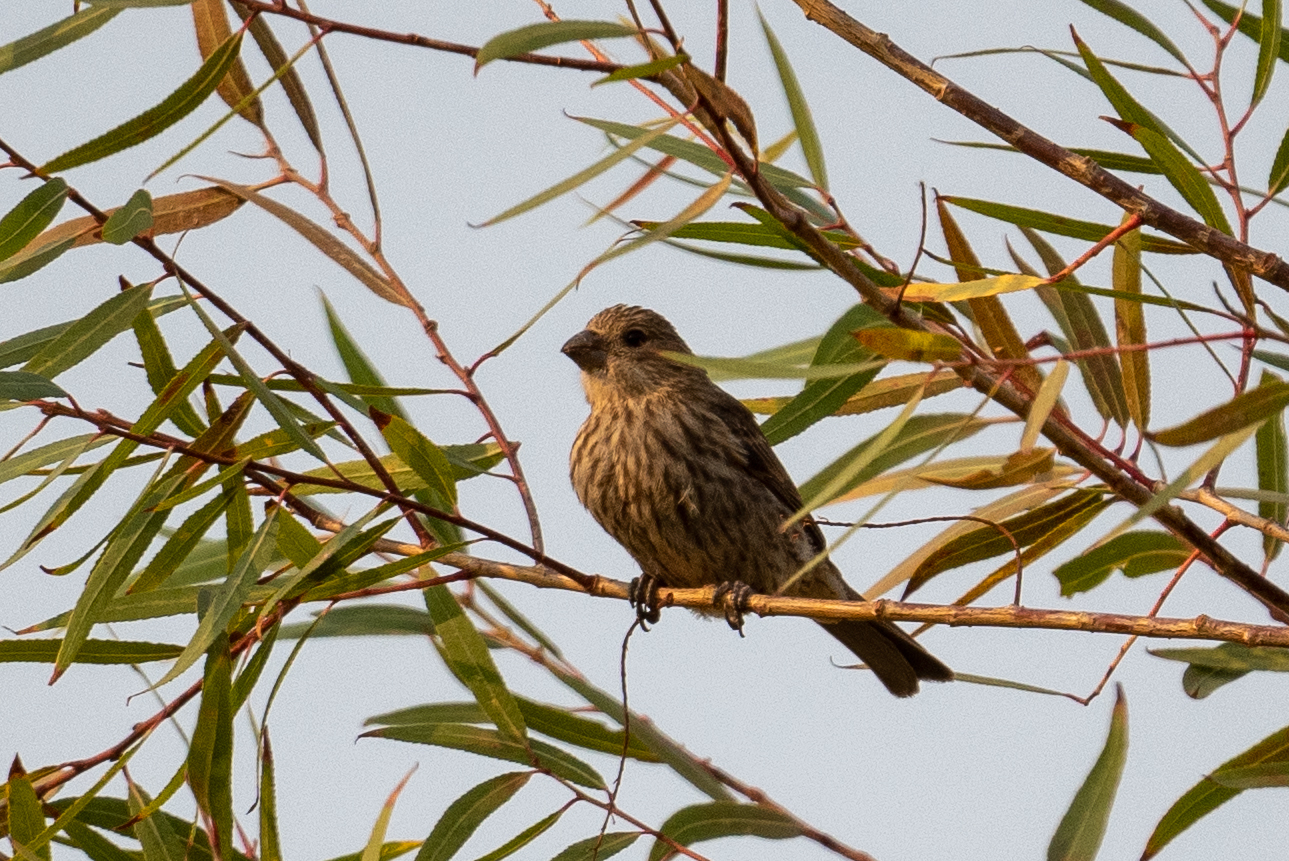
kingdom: Animalia
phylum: Chordata
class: Aves
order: Passeriformes
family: Fringillidae
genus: Haemorhous
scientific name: Haemorhous mexicanus
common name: House finch
